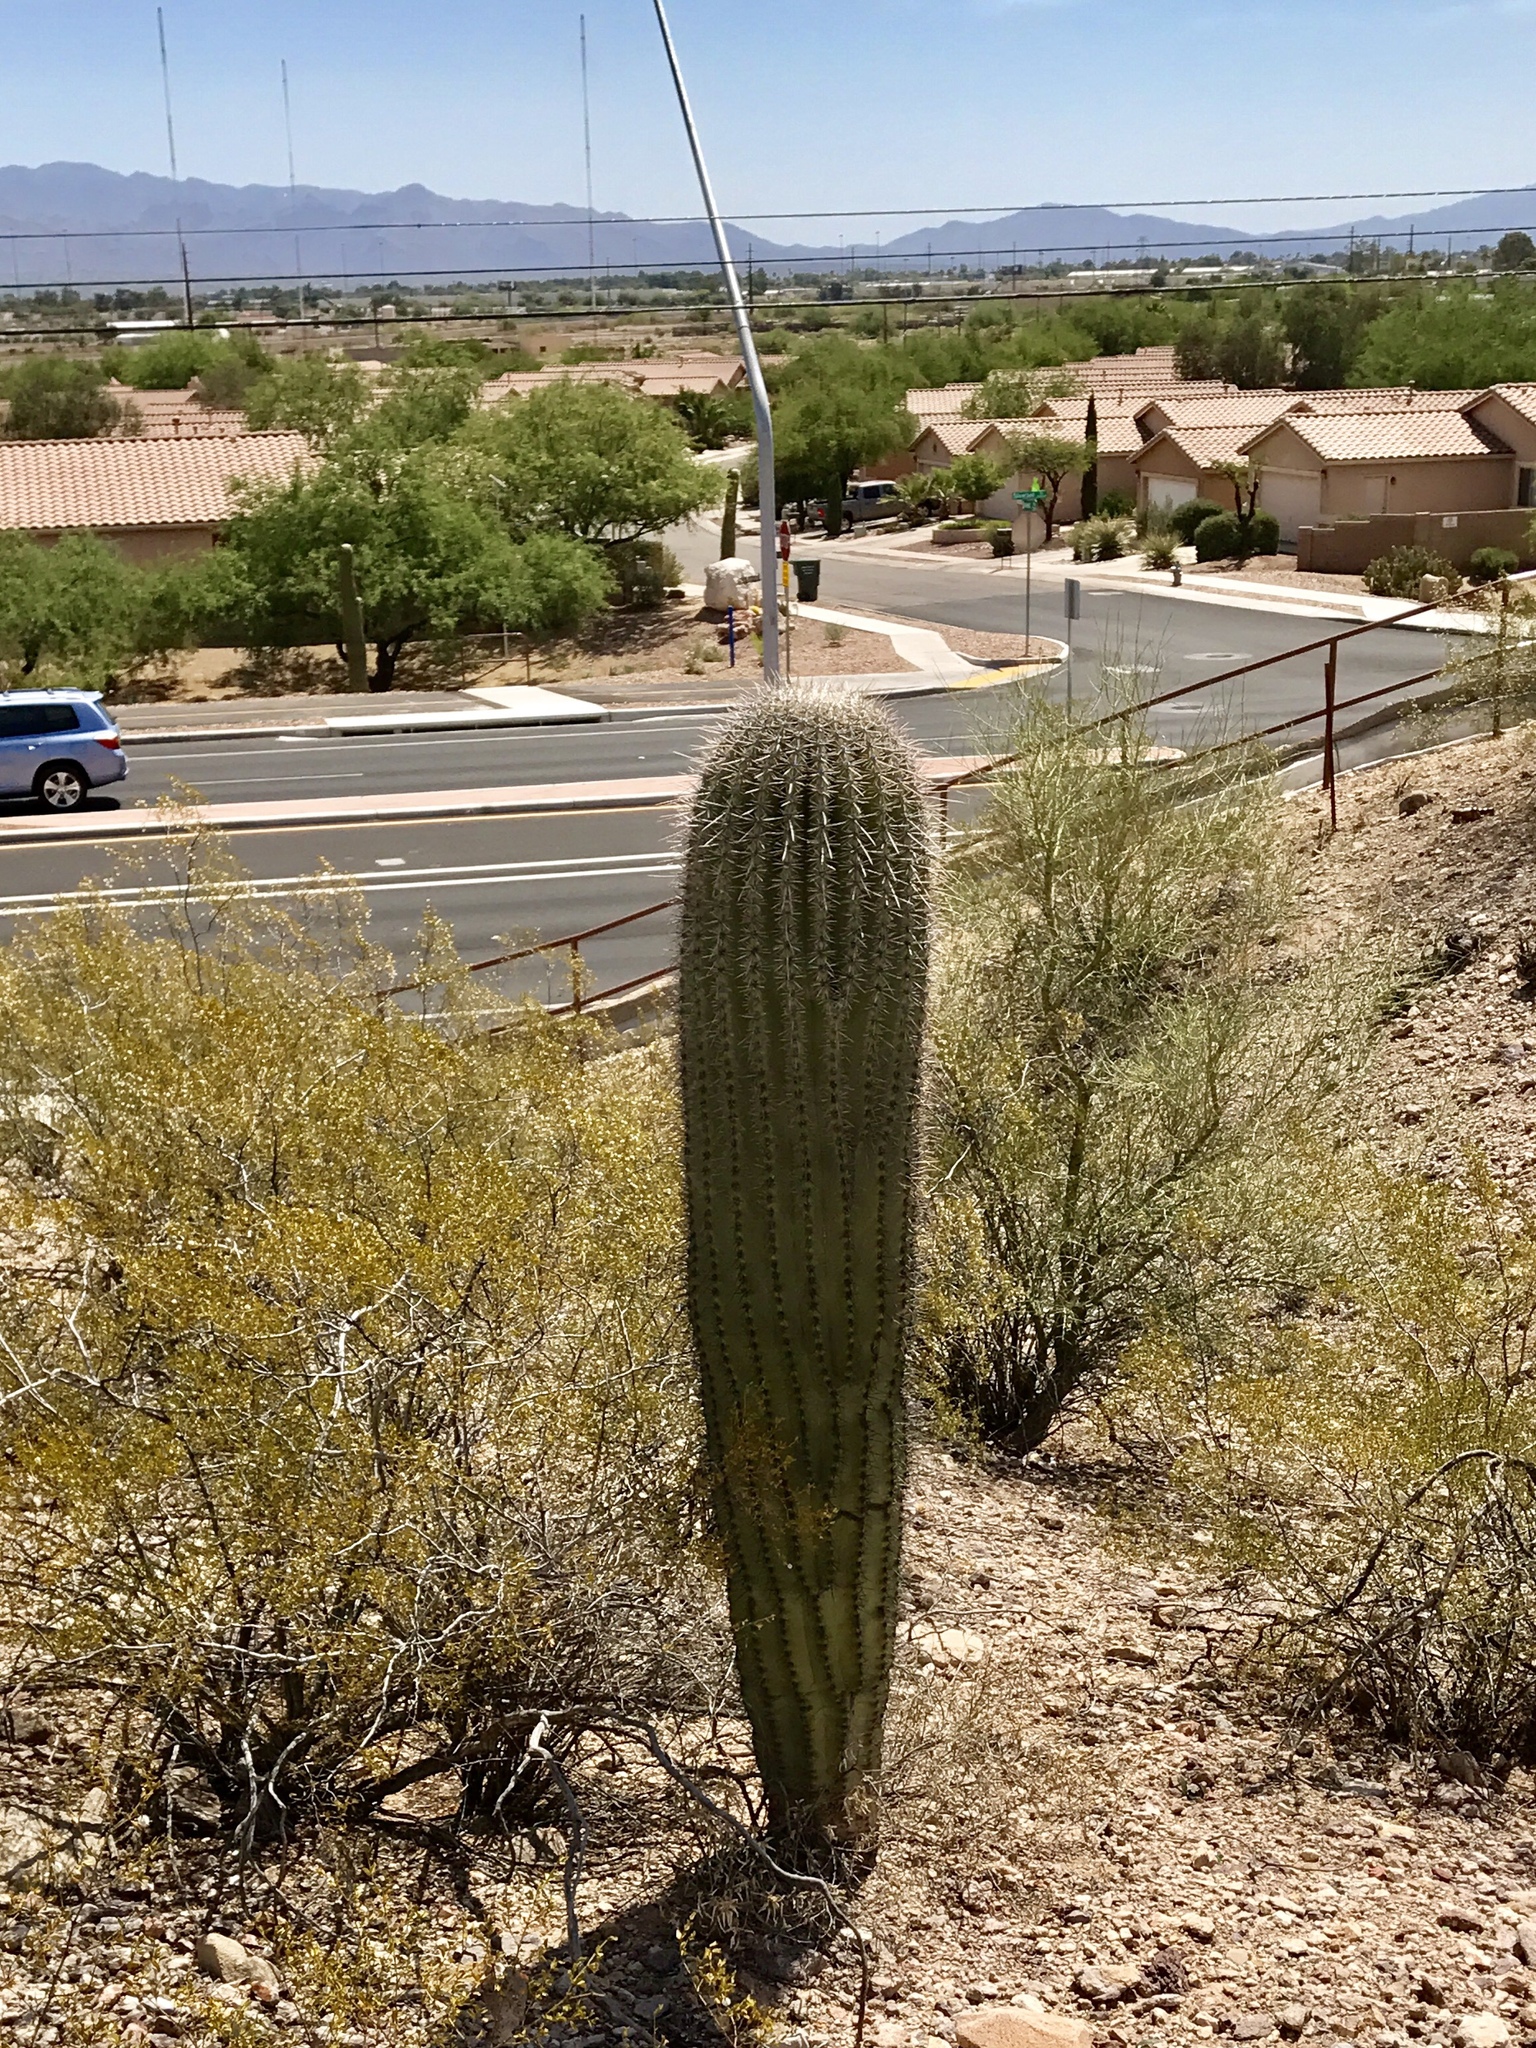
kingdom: Plantae
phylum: Tracheophyta
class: Magnoliopsida
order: Caryophyllales
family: Cactaceae
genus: Carnegiea
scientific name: Carnegiea gigantea
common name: Saguaro
